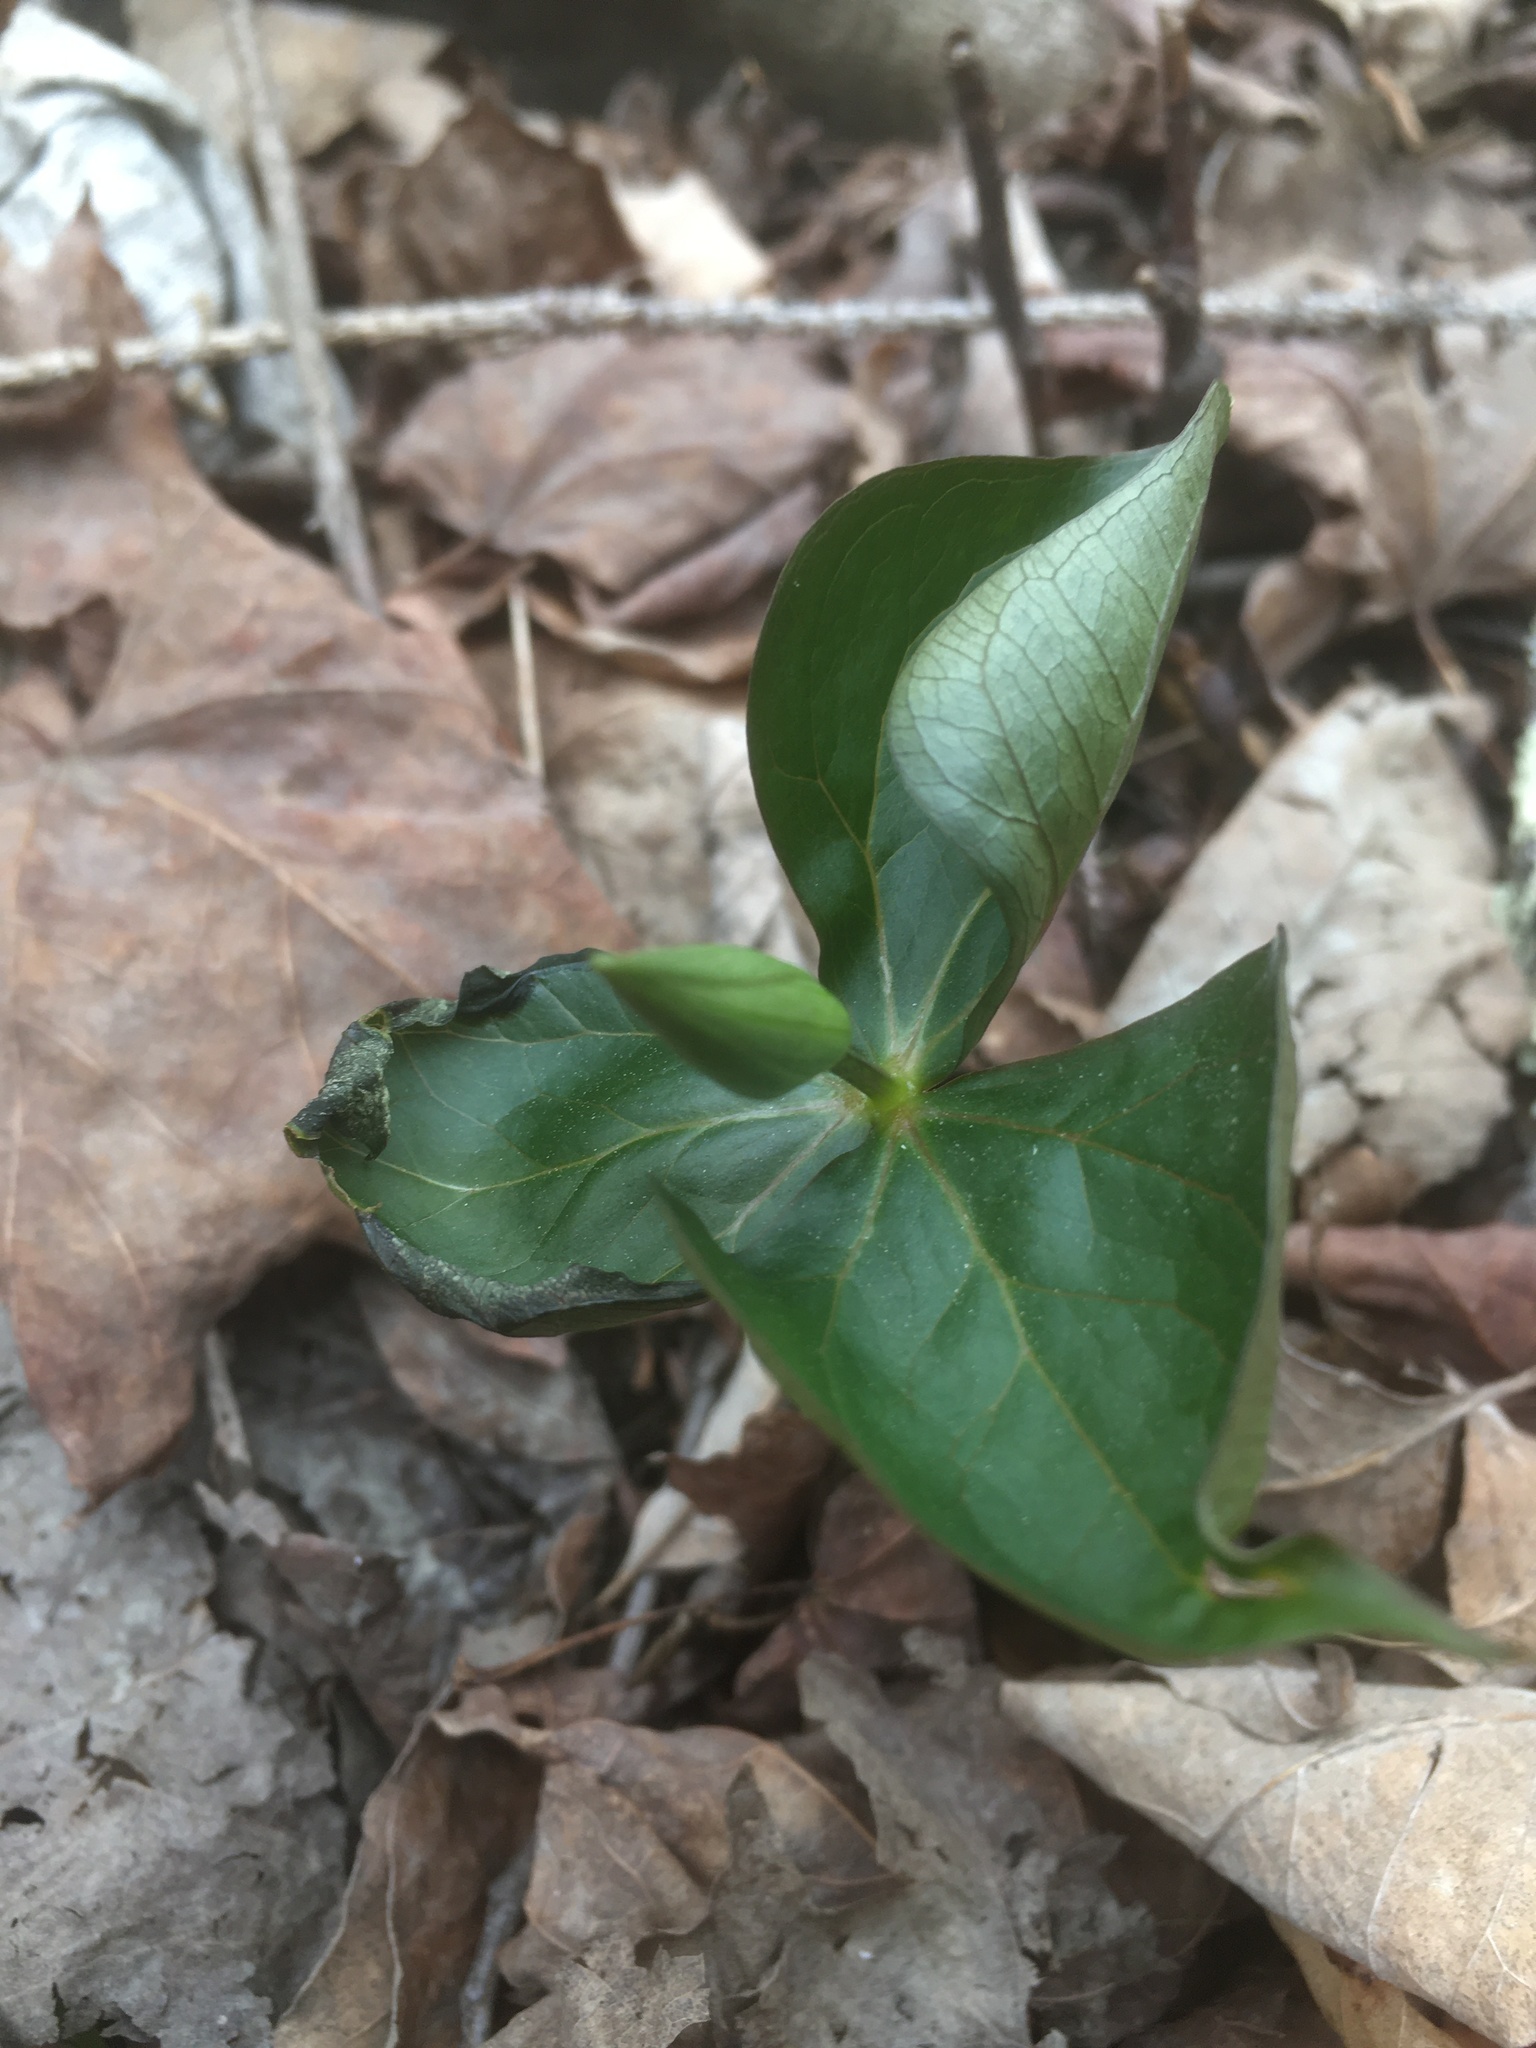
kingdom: Plantae
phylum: Tracheophyta
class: Liliopsida
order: Liliales
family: Melanthiaceae
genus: Trillium
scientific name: Trillium erectum
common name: Purple trillium
